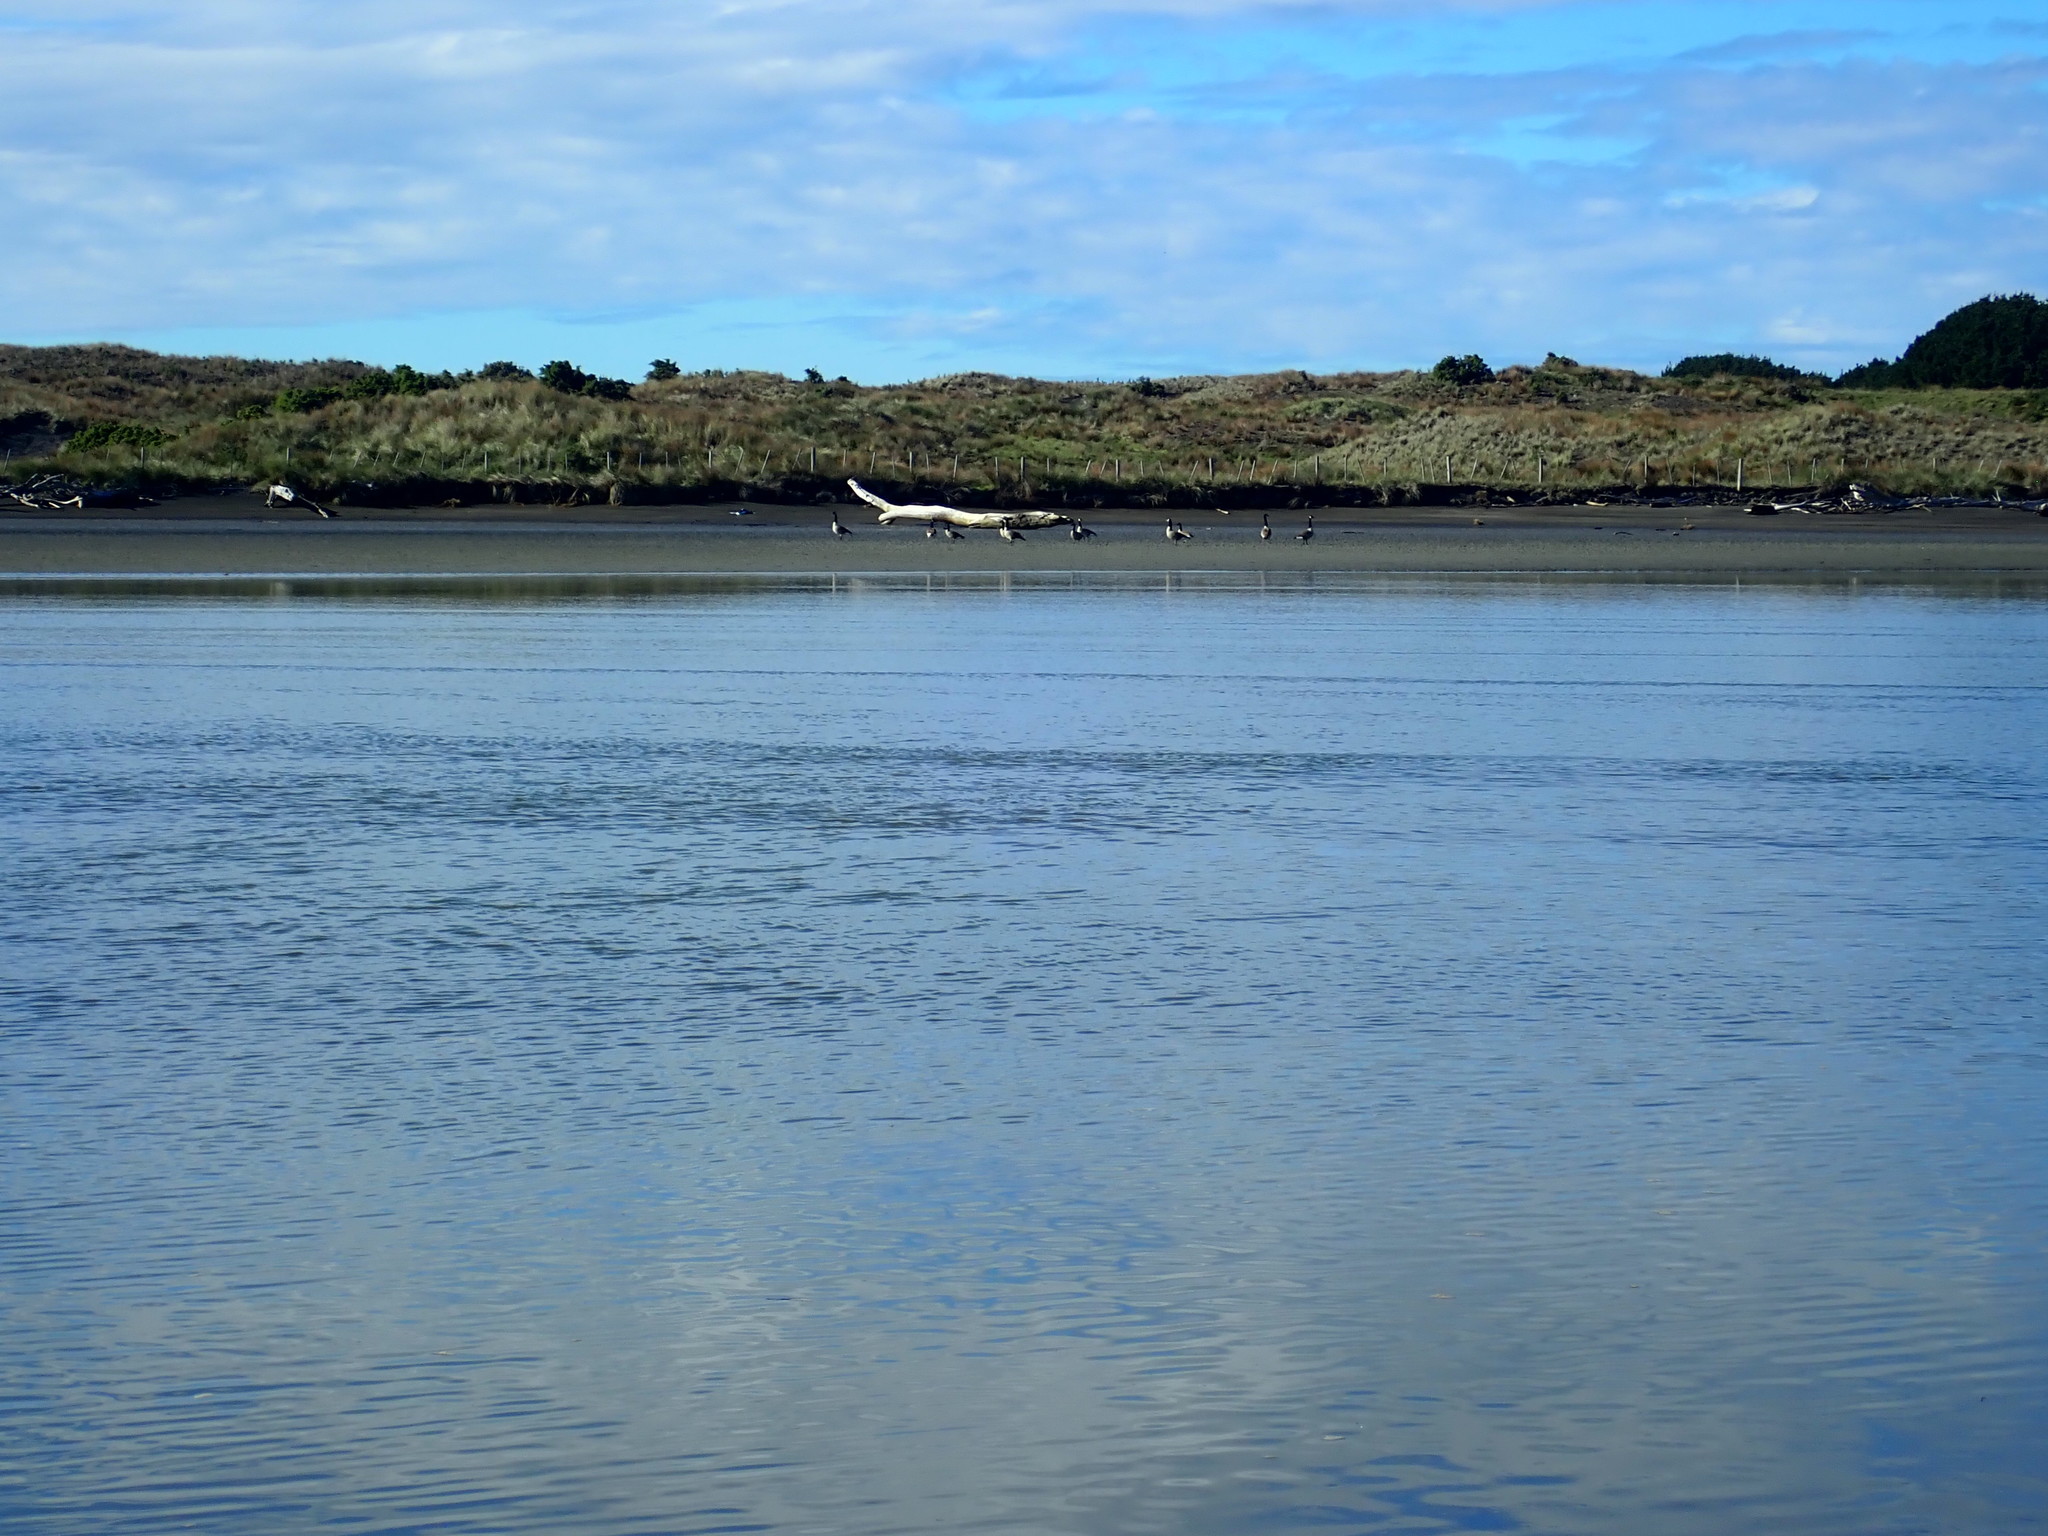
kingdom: Animalia
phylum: Chordata
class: Aves
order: Anseriformes
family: Anatidae
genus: Branta
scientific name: Branta canadensis
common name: Canada goose
